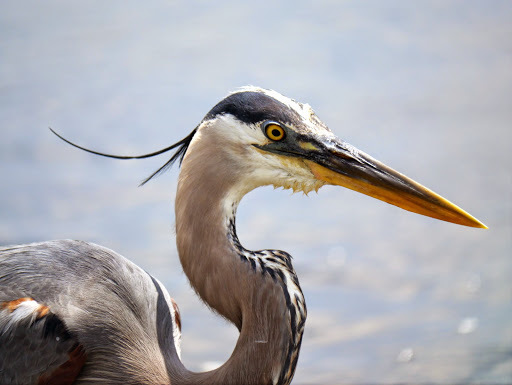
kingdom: Animalia
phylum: Chordata
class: Aves
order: Pelecaniformes
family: Ardeidae
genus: Ardea
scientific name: Ardea herodias
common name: Great blue heron
